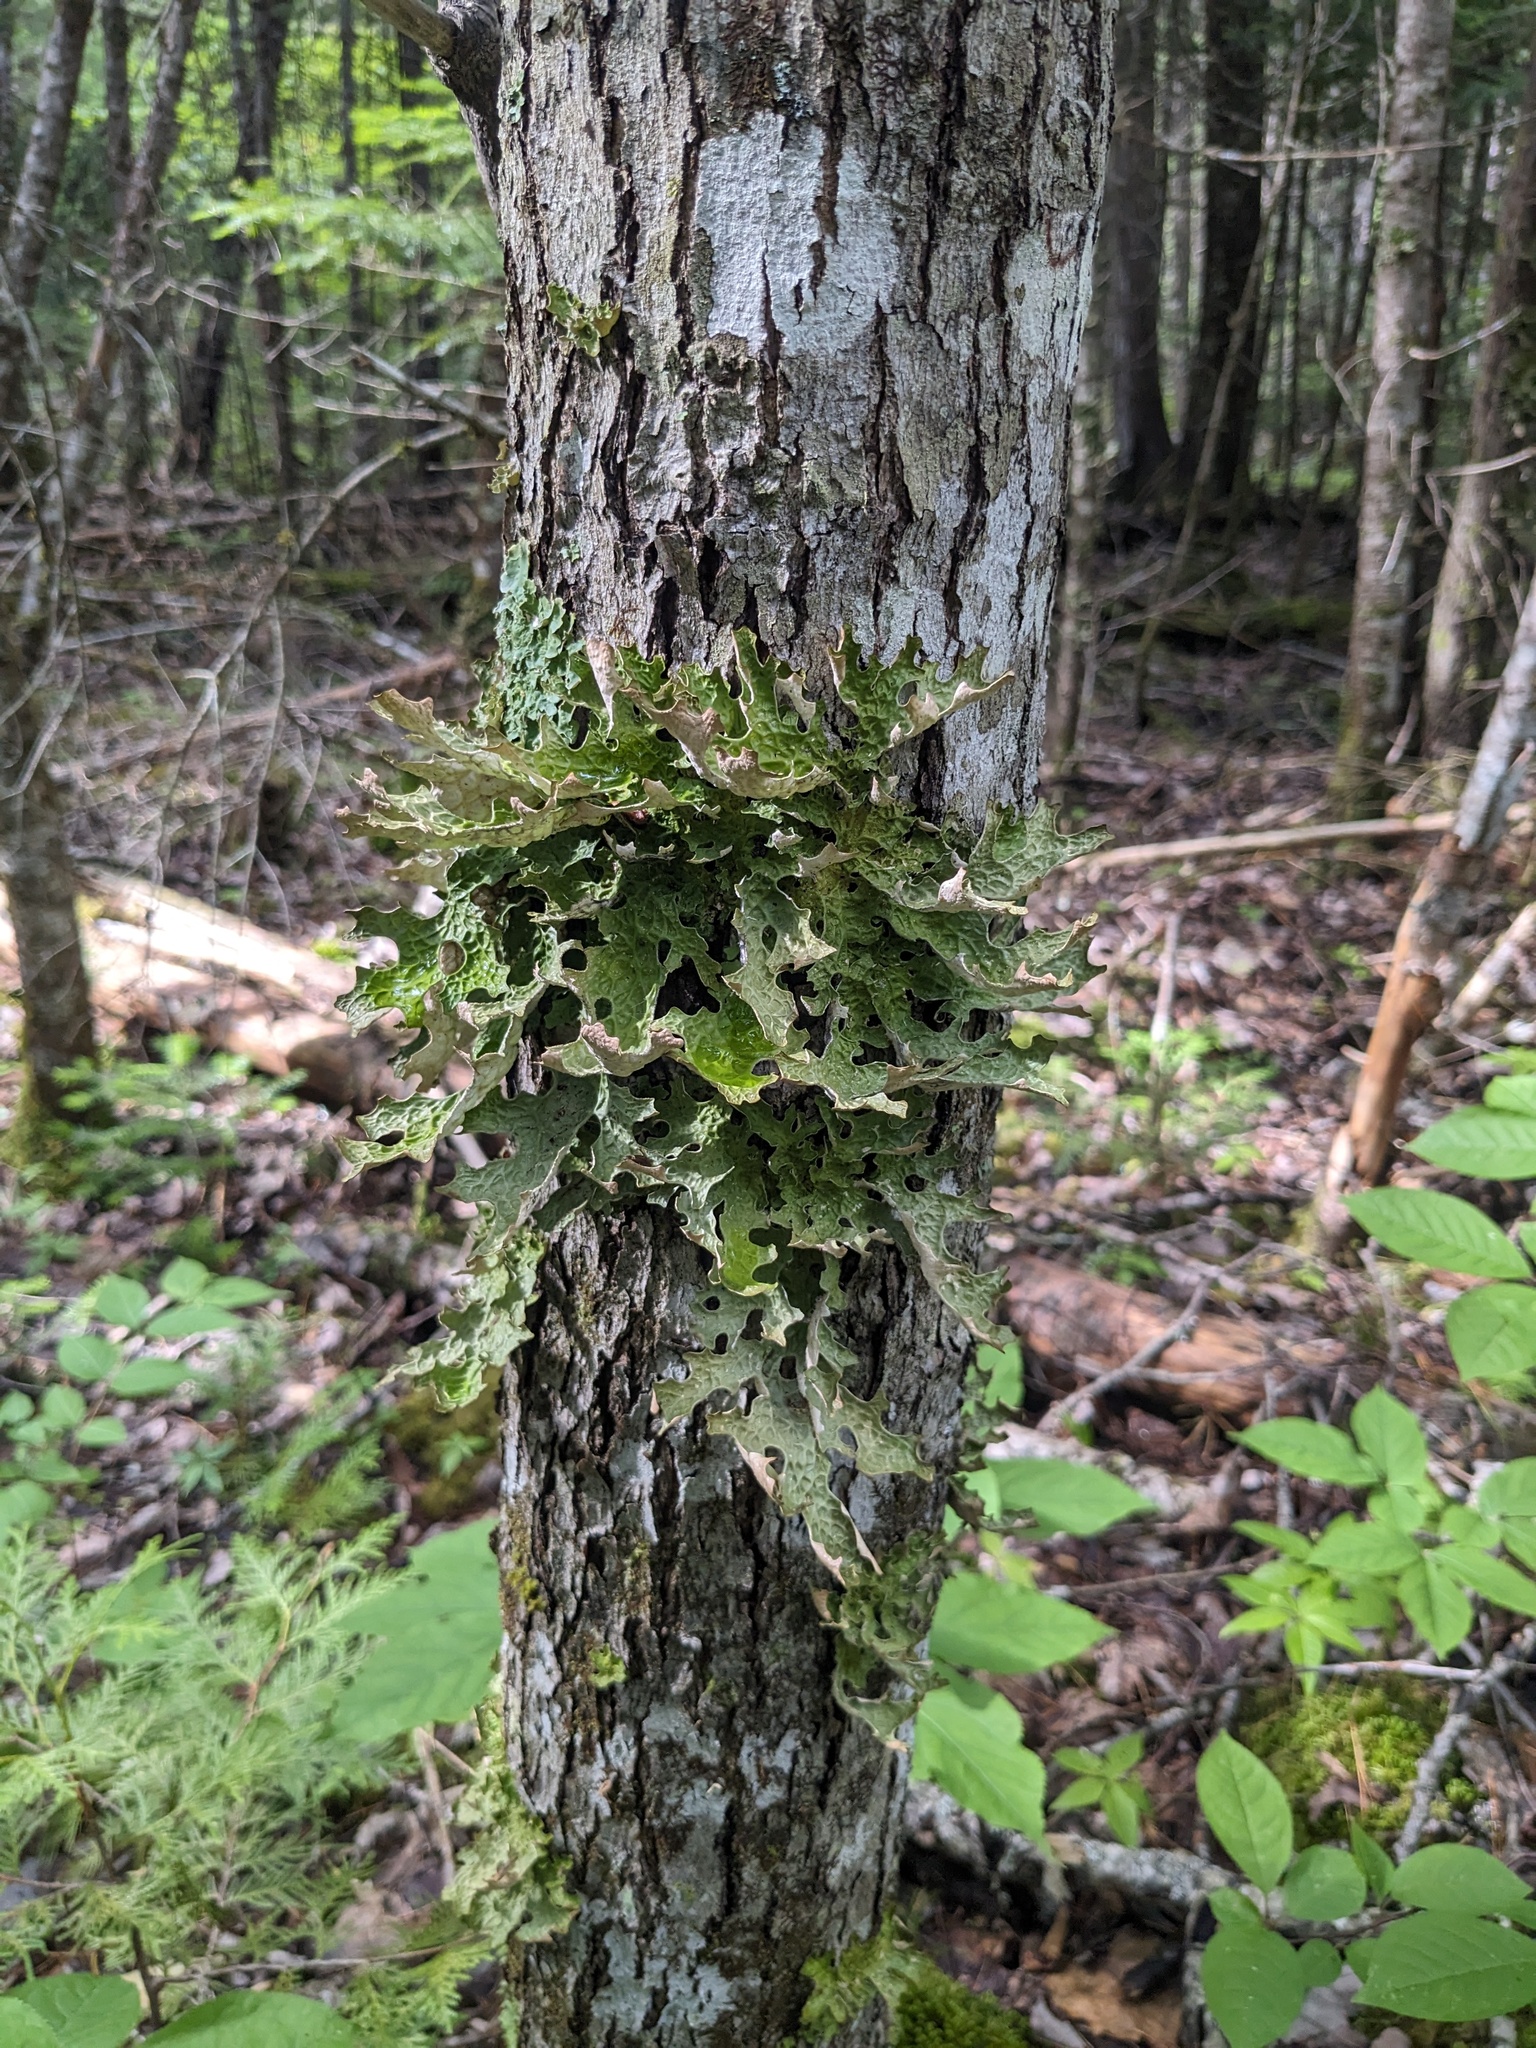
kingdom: Fungi
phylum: Ascomycota
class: Lecanoromycetes
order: Peltigerales
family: Lobariaceae
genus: Lobaria
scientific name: Lobaria pulmonaria
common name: Lungwort
